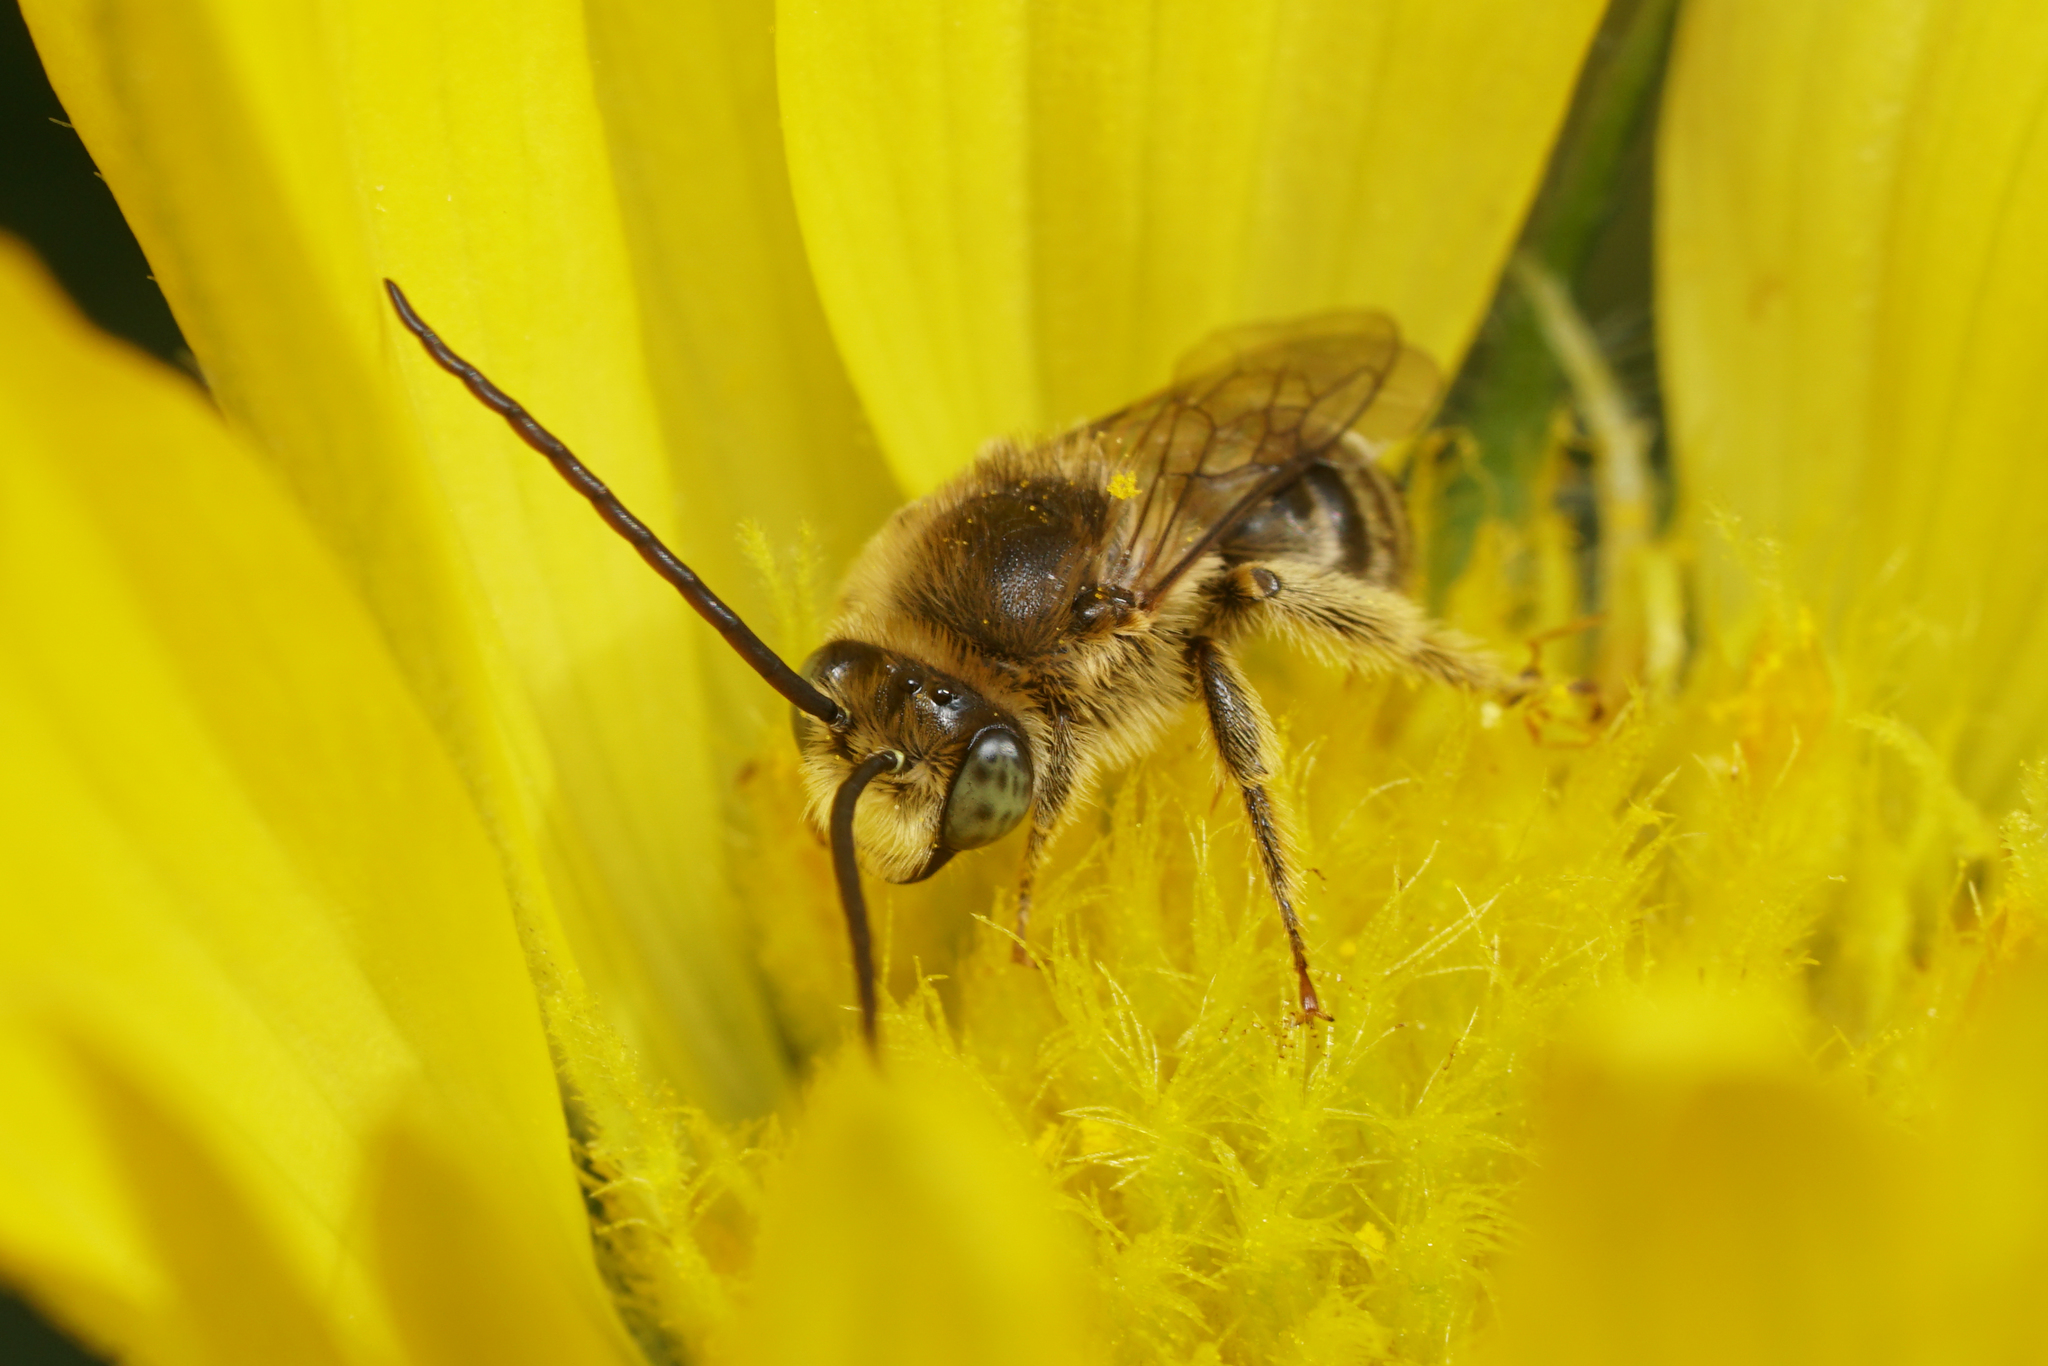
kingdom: Animalia
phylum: Arthropoda
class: Insecta
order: Hymenoptera
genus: Eumelissodes
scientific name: Eumelissodes
